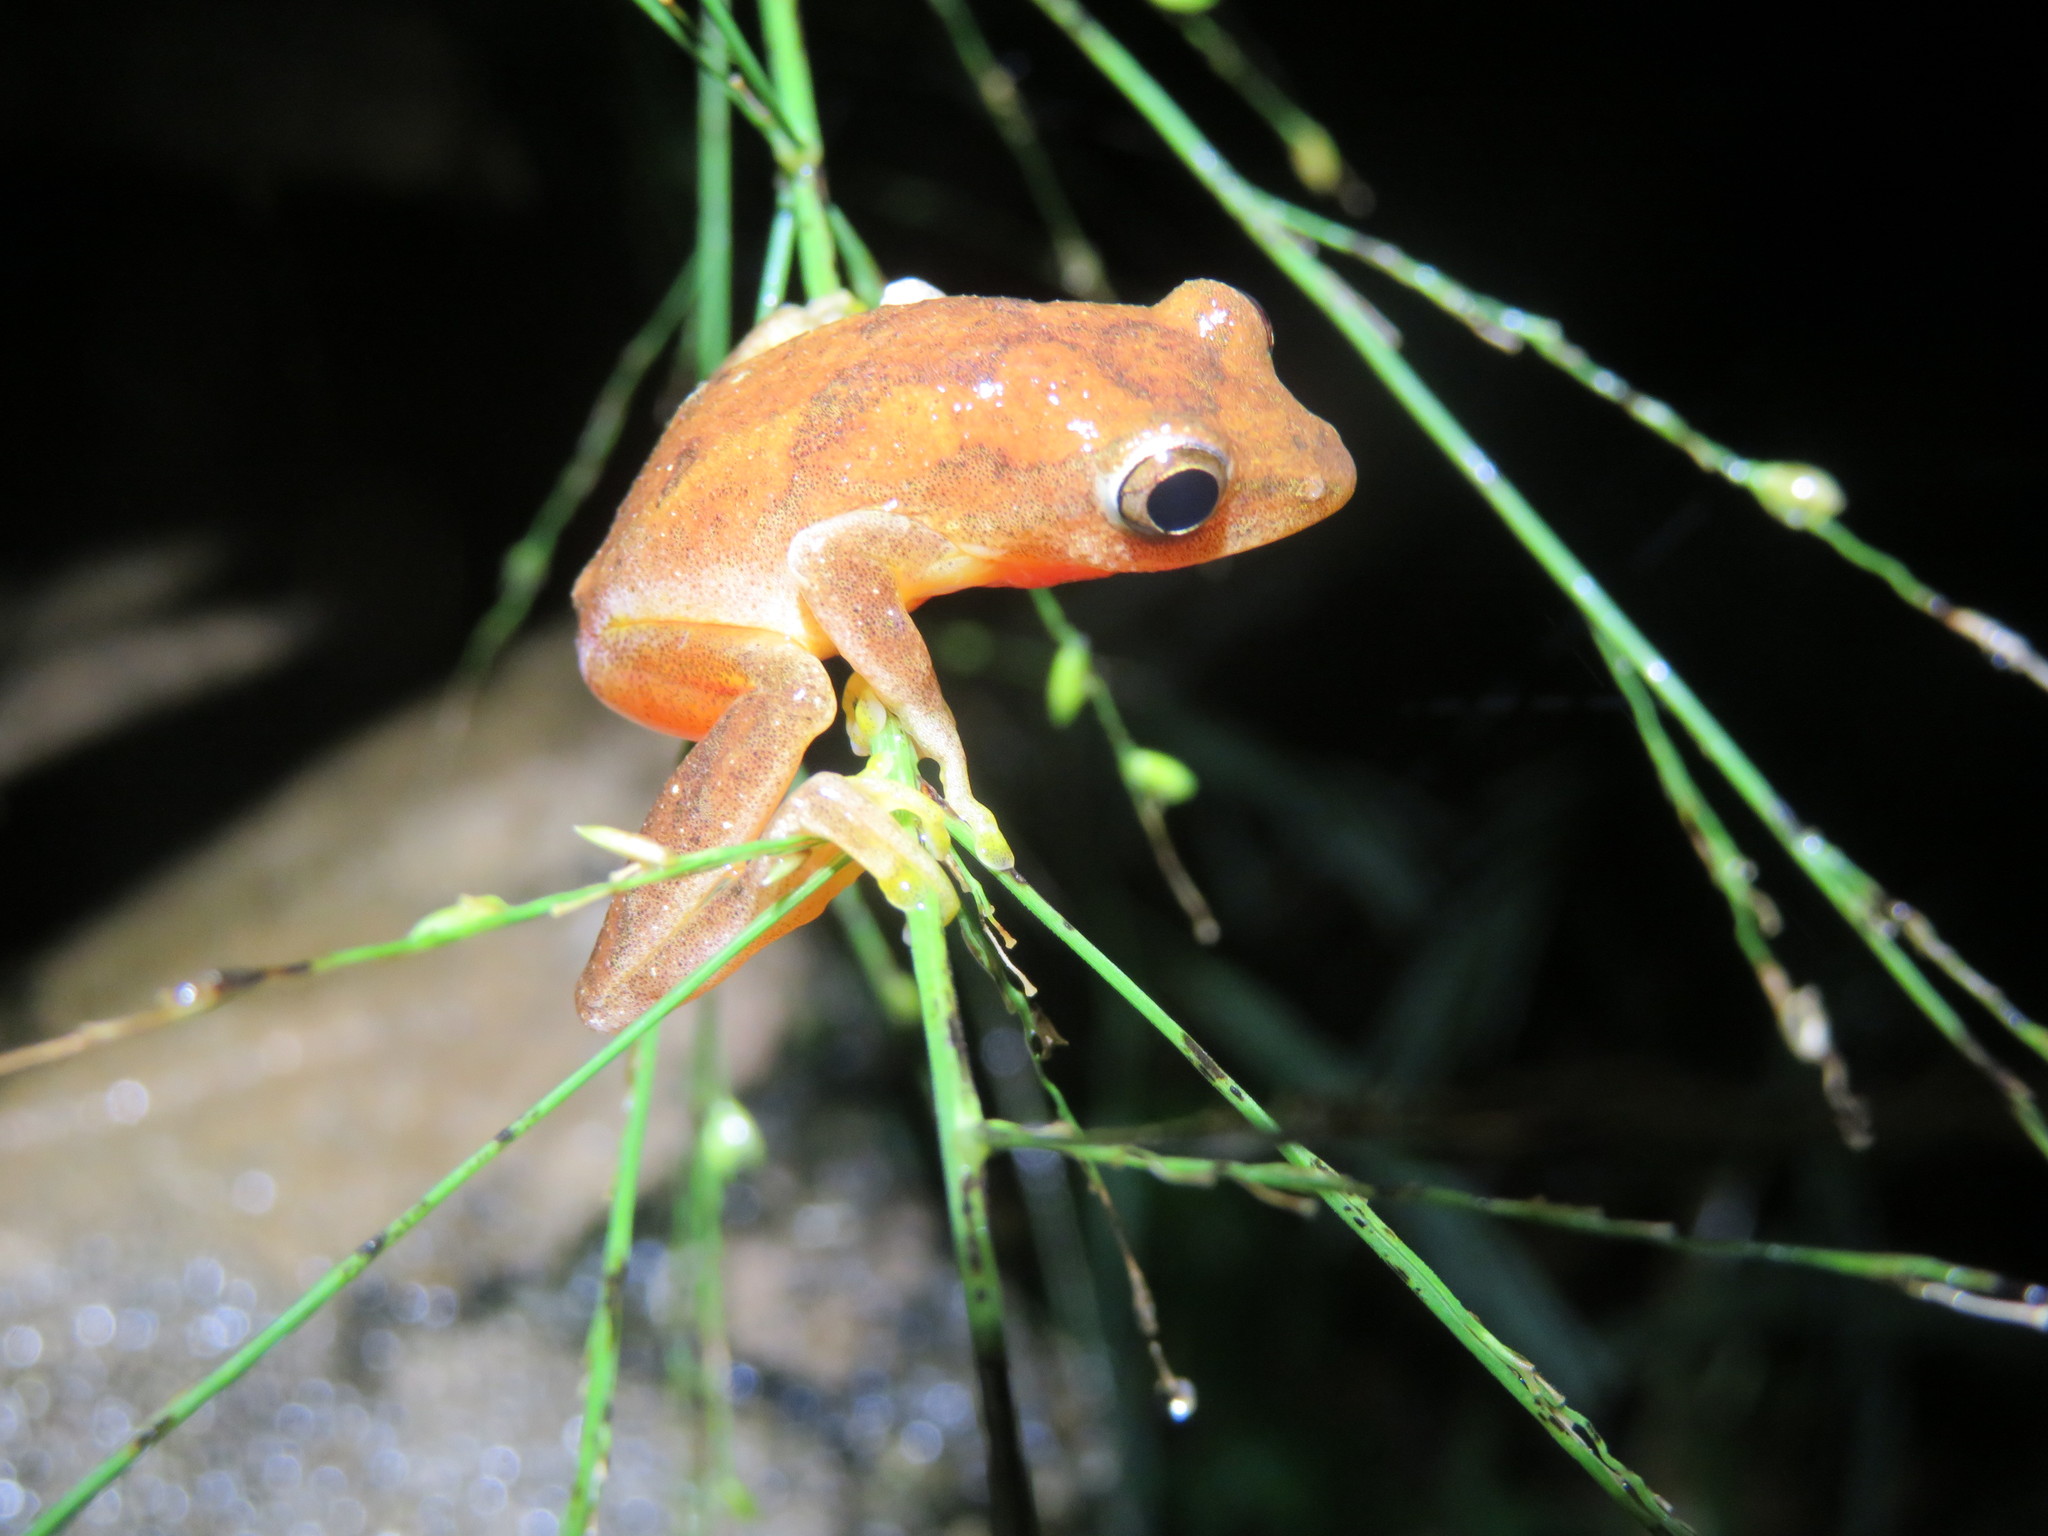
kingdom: Animalia
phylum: Chordata
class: Amphibia
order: Anura
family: Hyperoliidae
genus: Hyperolius
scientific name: Hyperolius tuberilinguis
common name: Tinker reed frog
